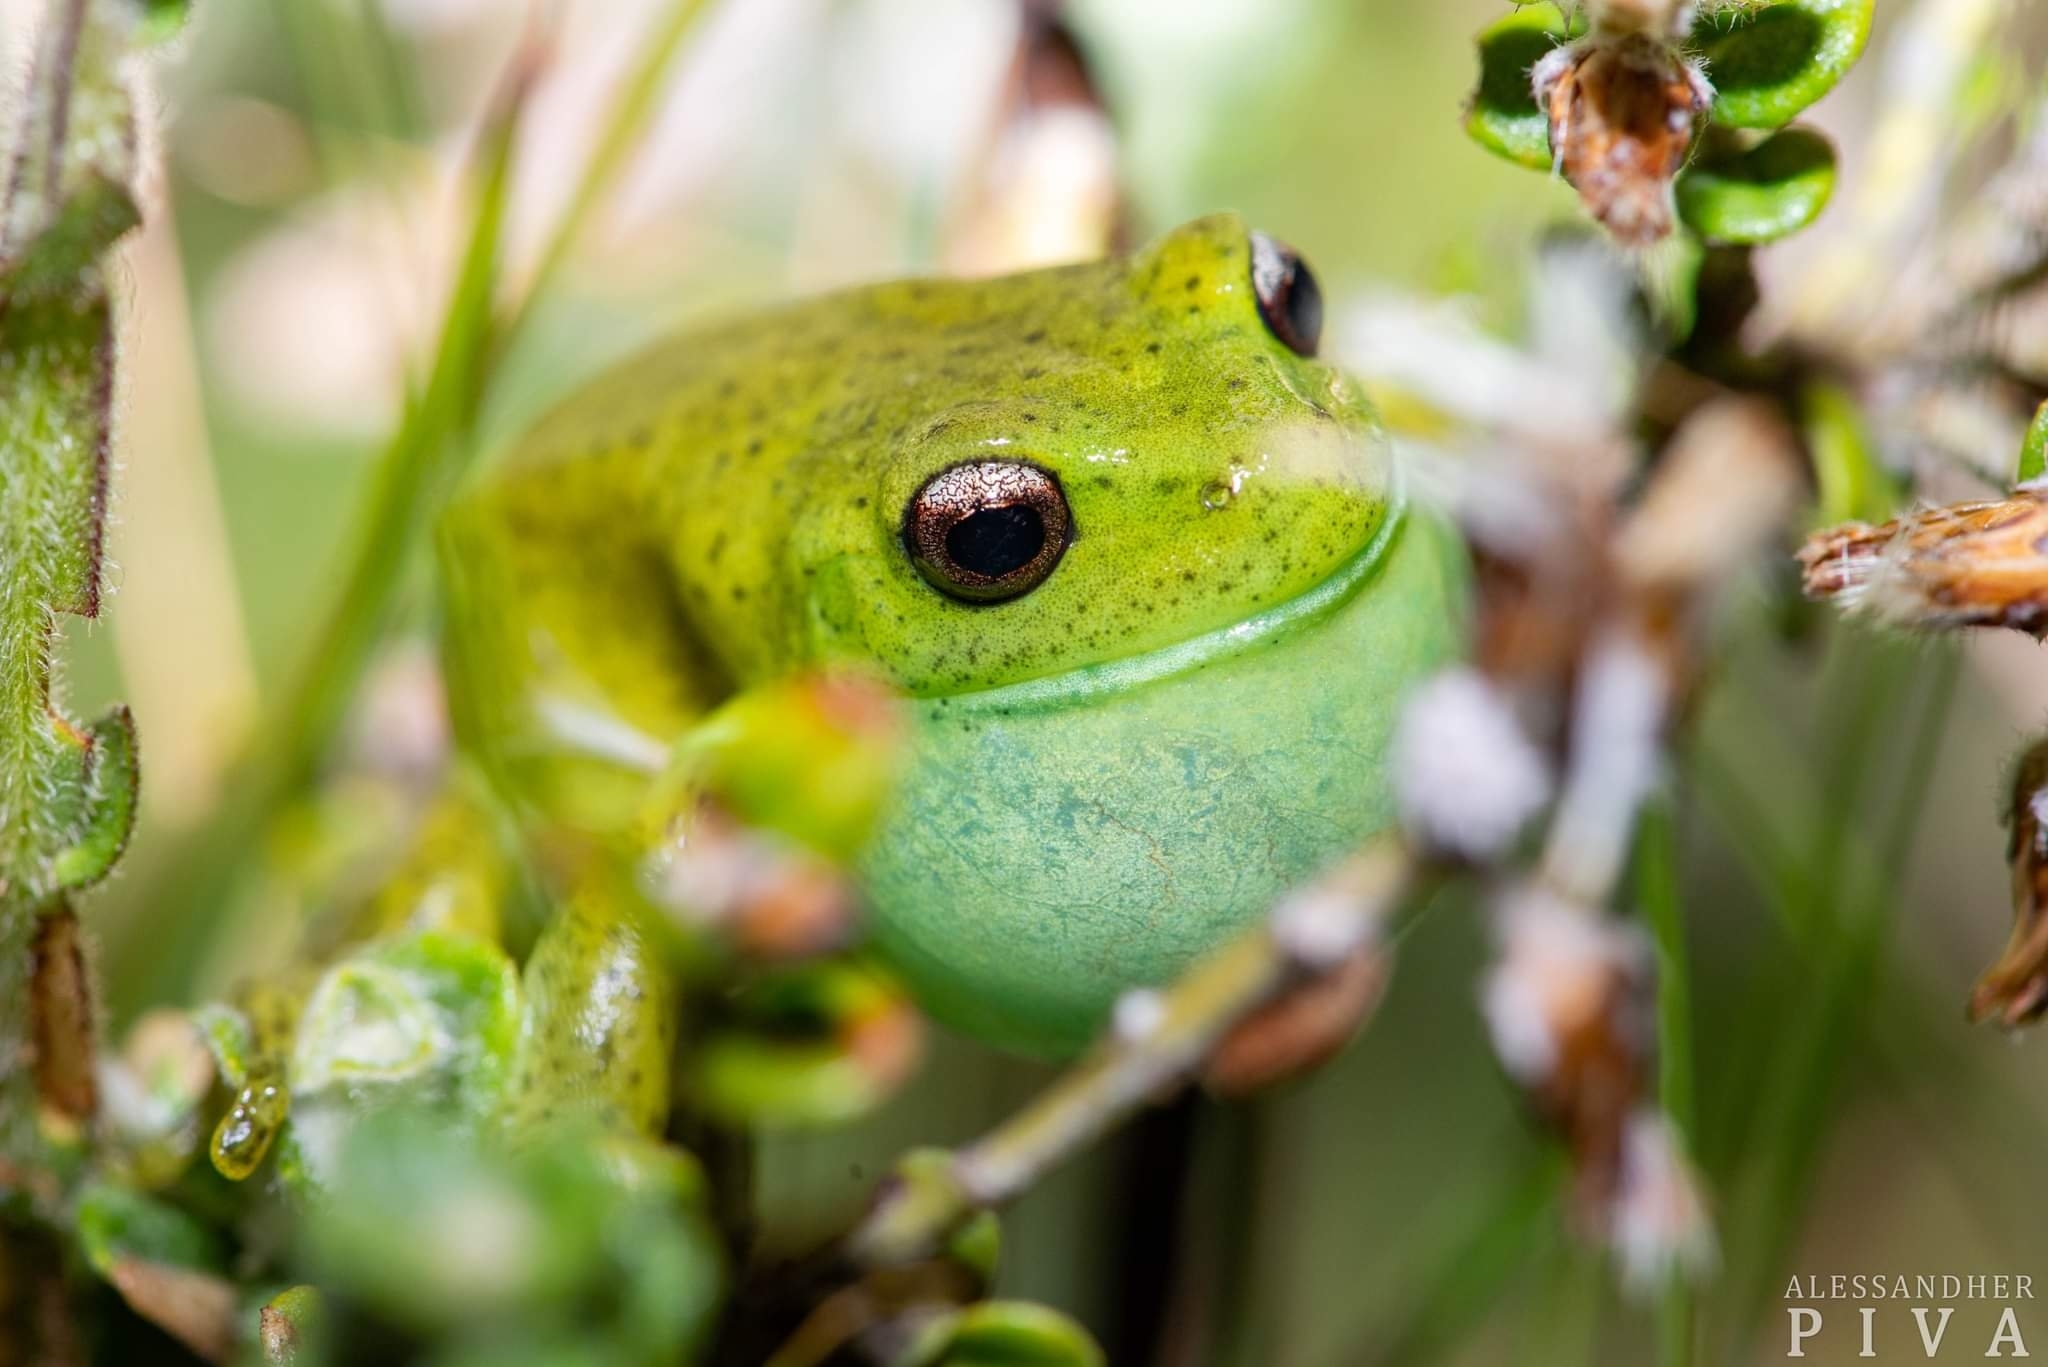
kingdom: Animalia
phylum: Chordata
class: Amphibia
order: Anura
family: Hylidae
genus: Aplastodiscus
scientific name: Aplastodiscus perviridis
